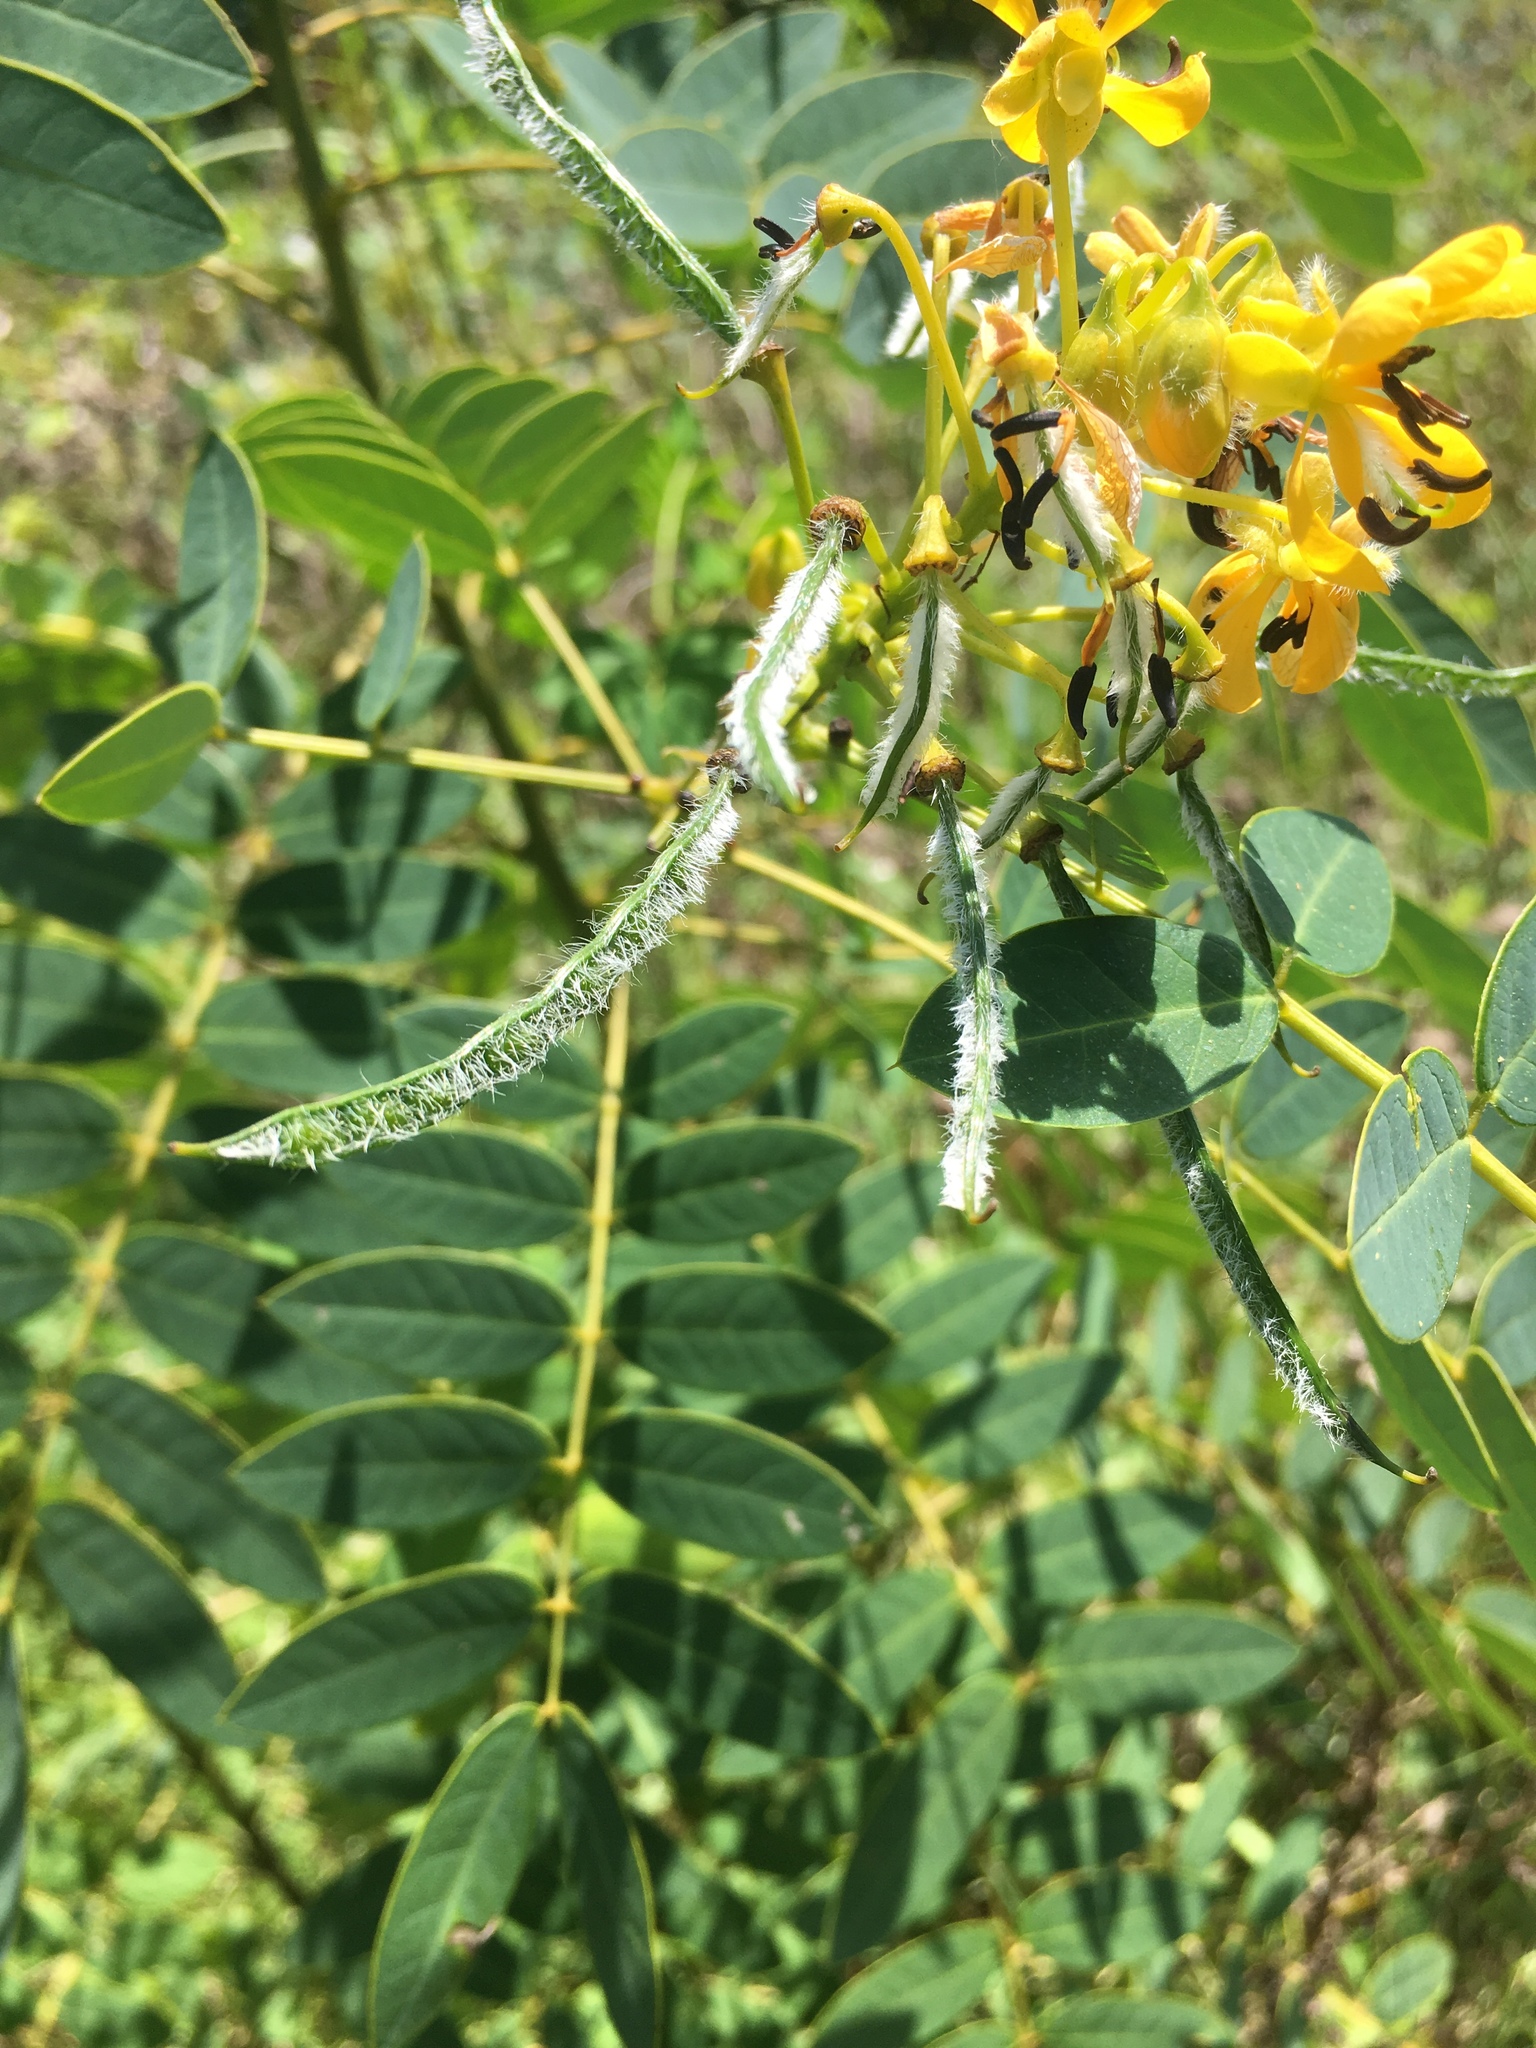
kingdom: Plantae
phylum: Tracheophyta
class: Magnoliopsida
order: Fabales
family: Fabaceae
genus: Senna
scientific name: Senna hebecarpa
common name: Wild senna
